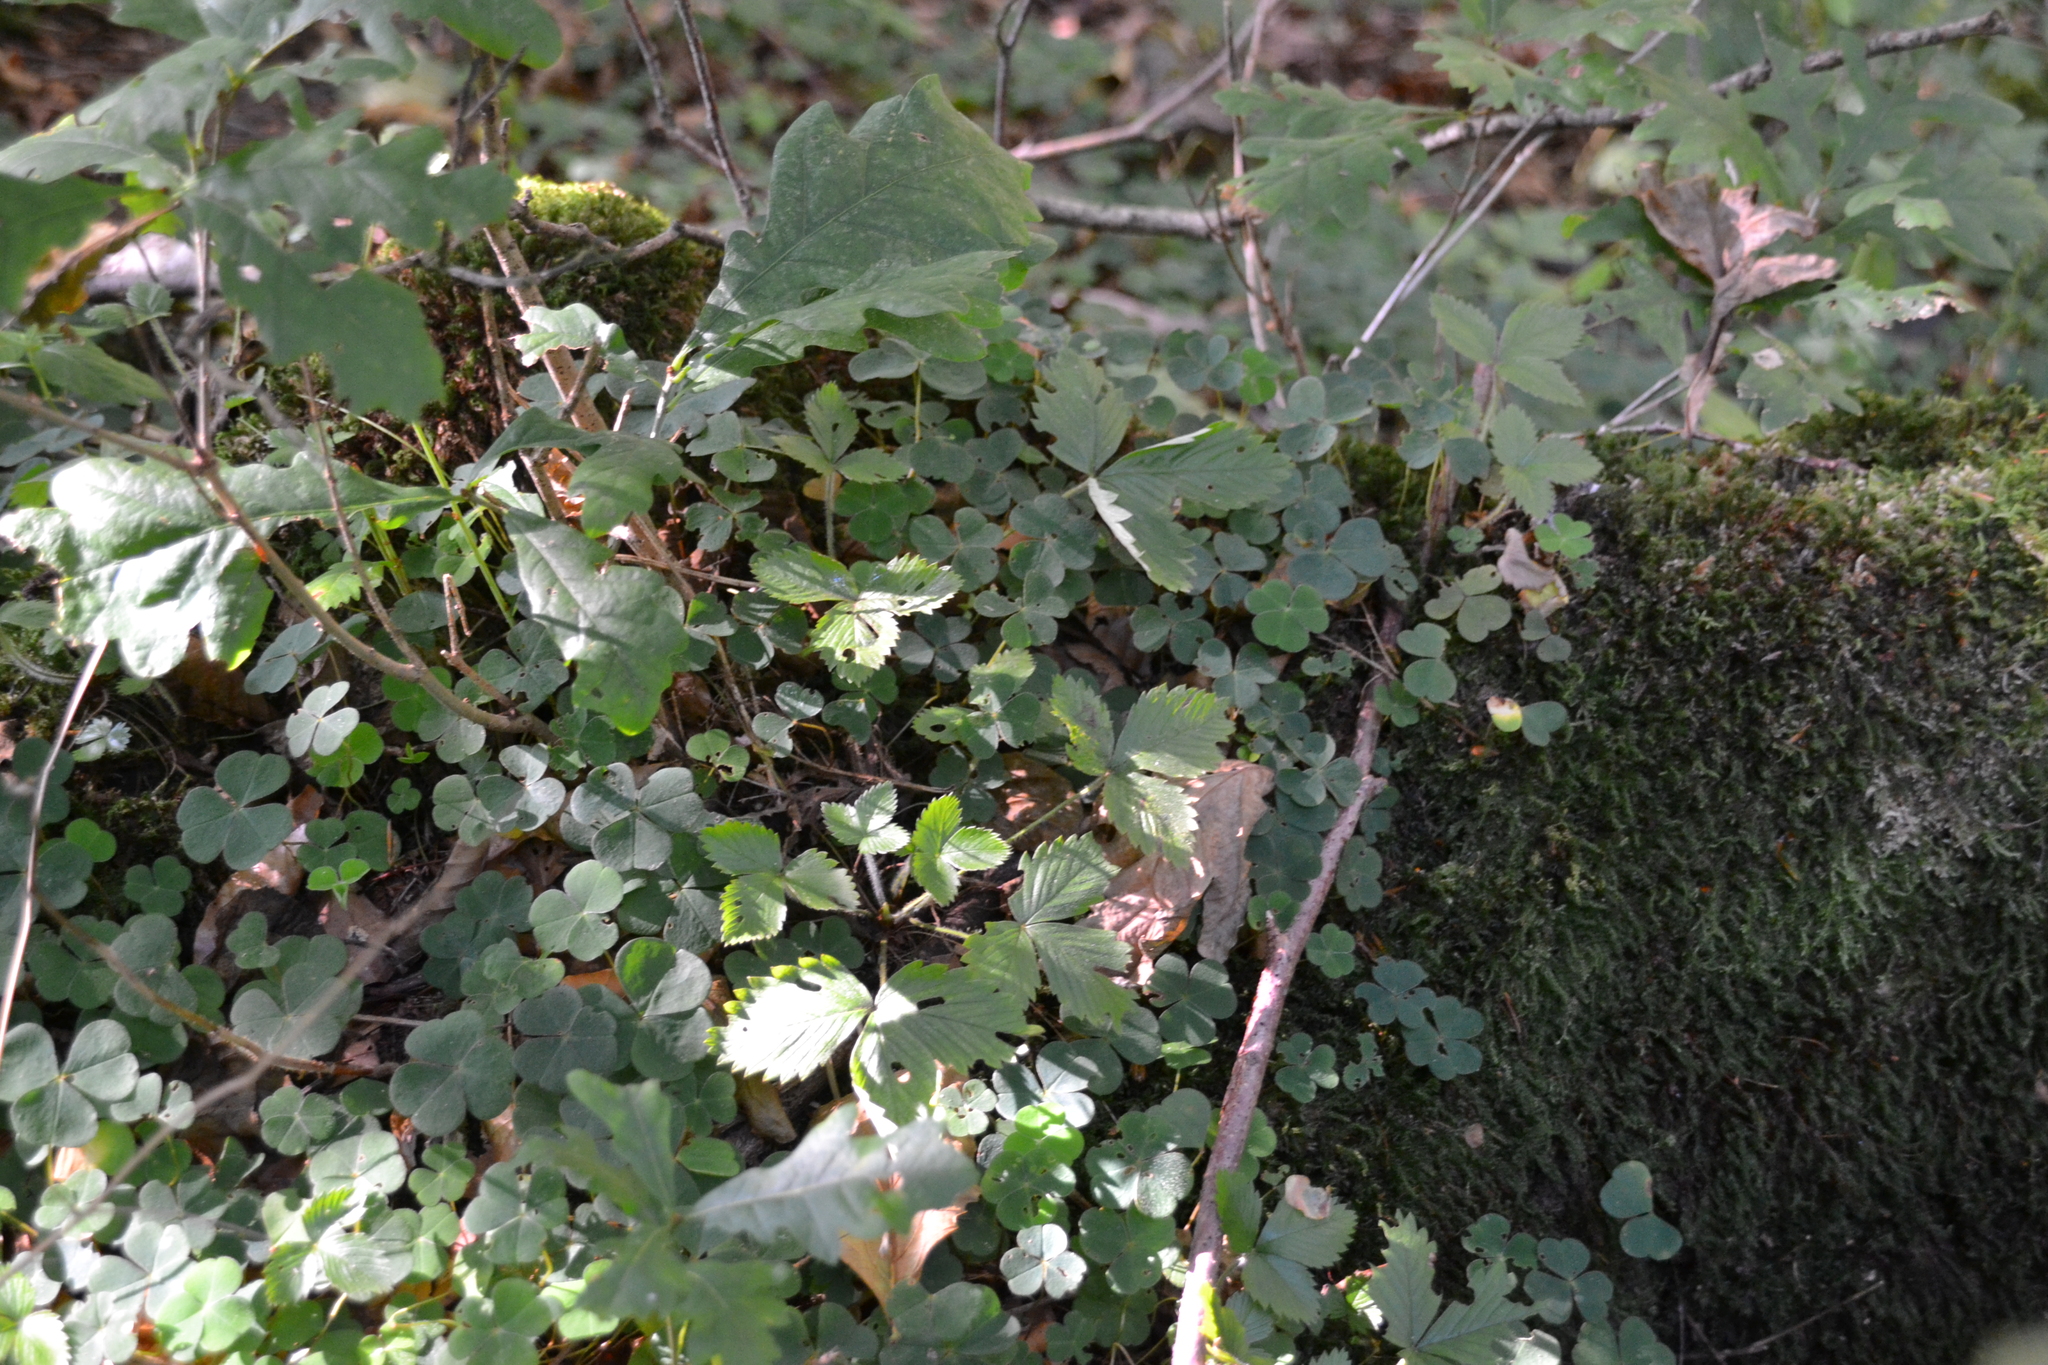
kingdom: Plantae
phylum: Tracheophyta
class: Magnoliopsida
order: Rosales
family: Rosaceae
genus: Fragaria
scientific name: Fragaria vesca
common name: Wild strawberry
